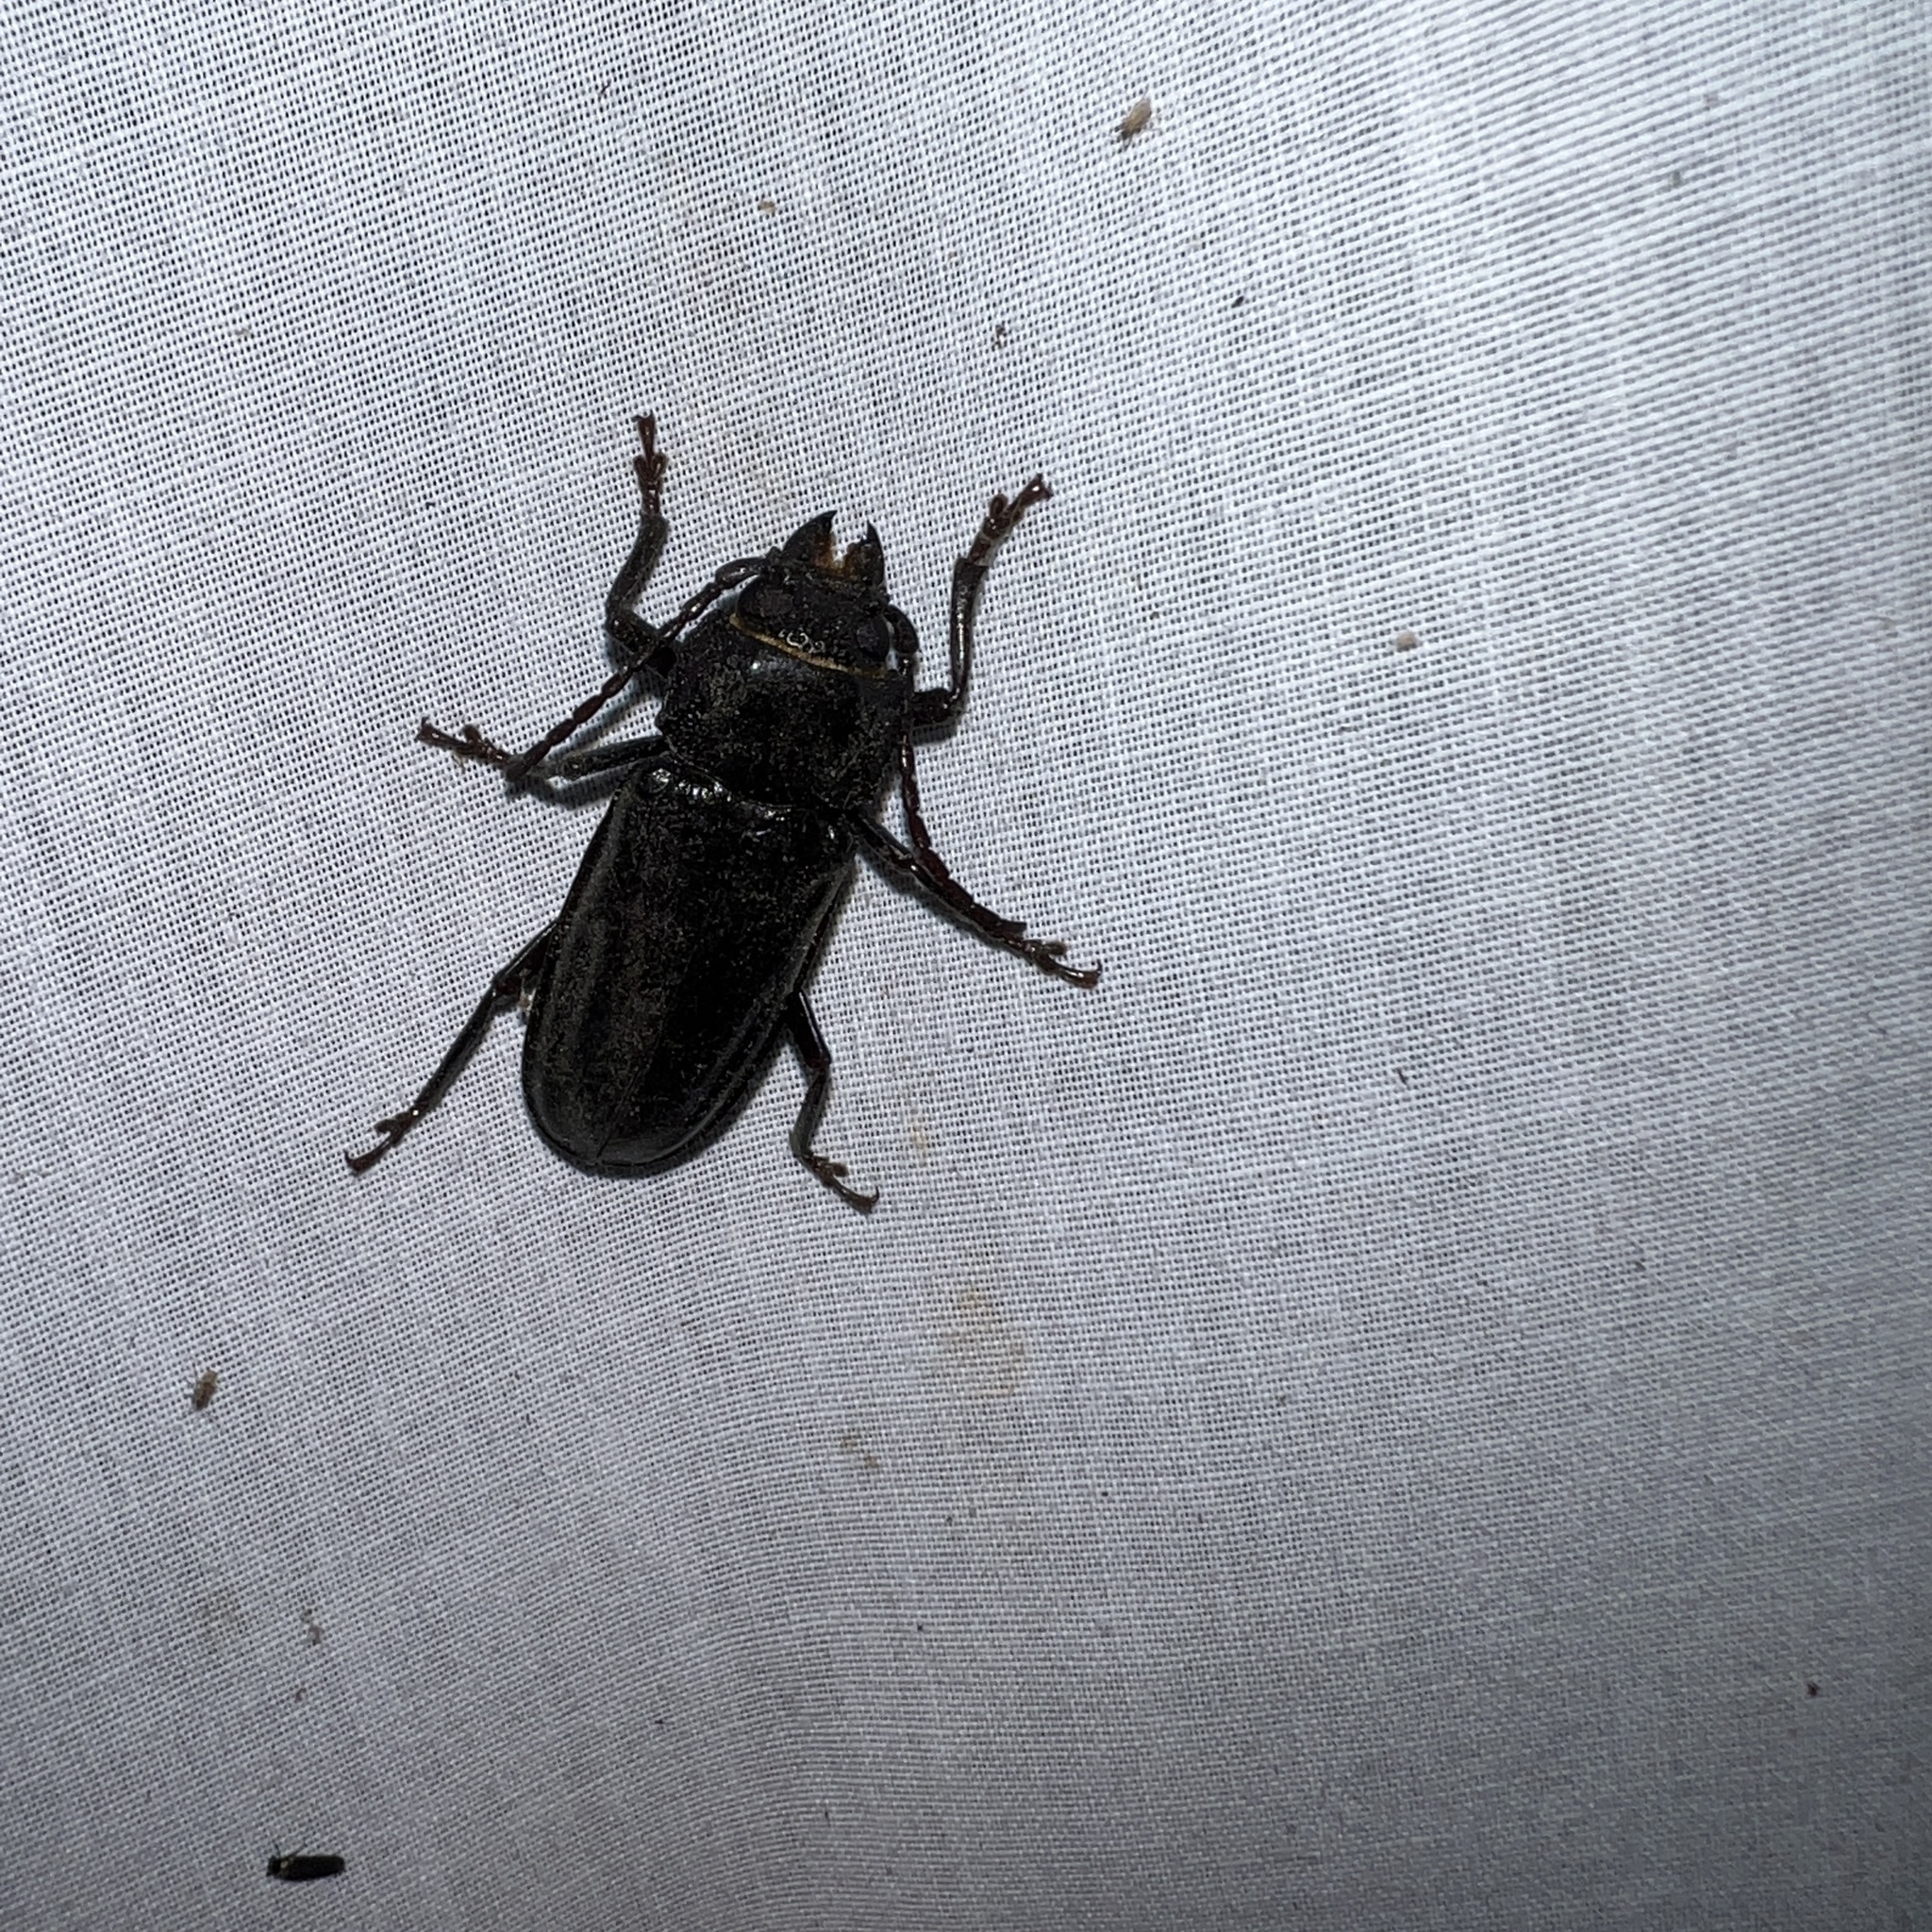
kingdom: Animalia
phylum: Arthropoda
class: Insecta
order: Coleoptera
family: Cerambycidae
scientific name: Cerambycidae
